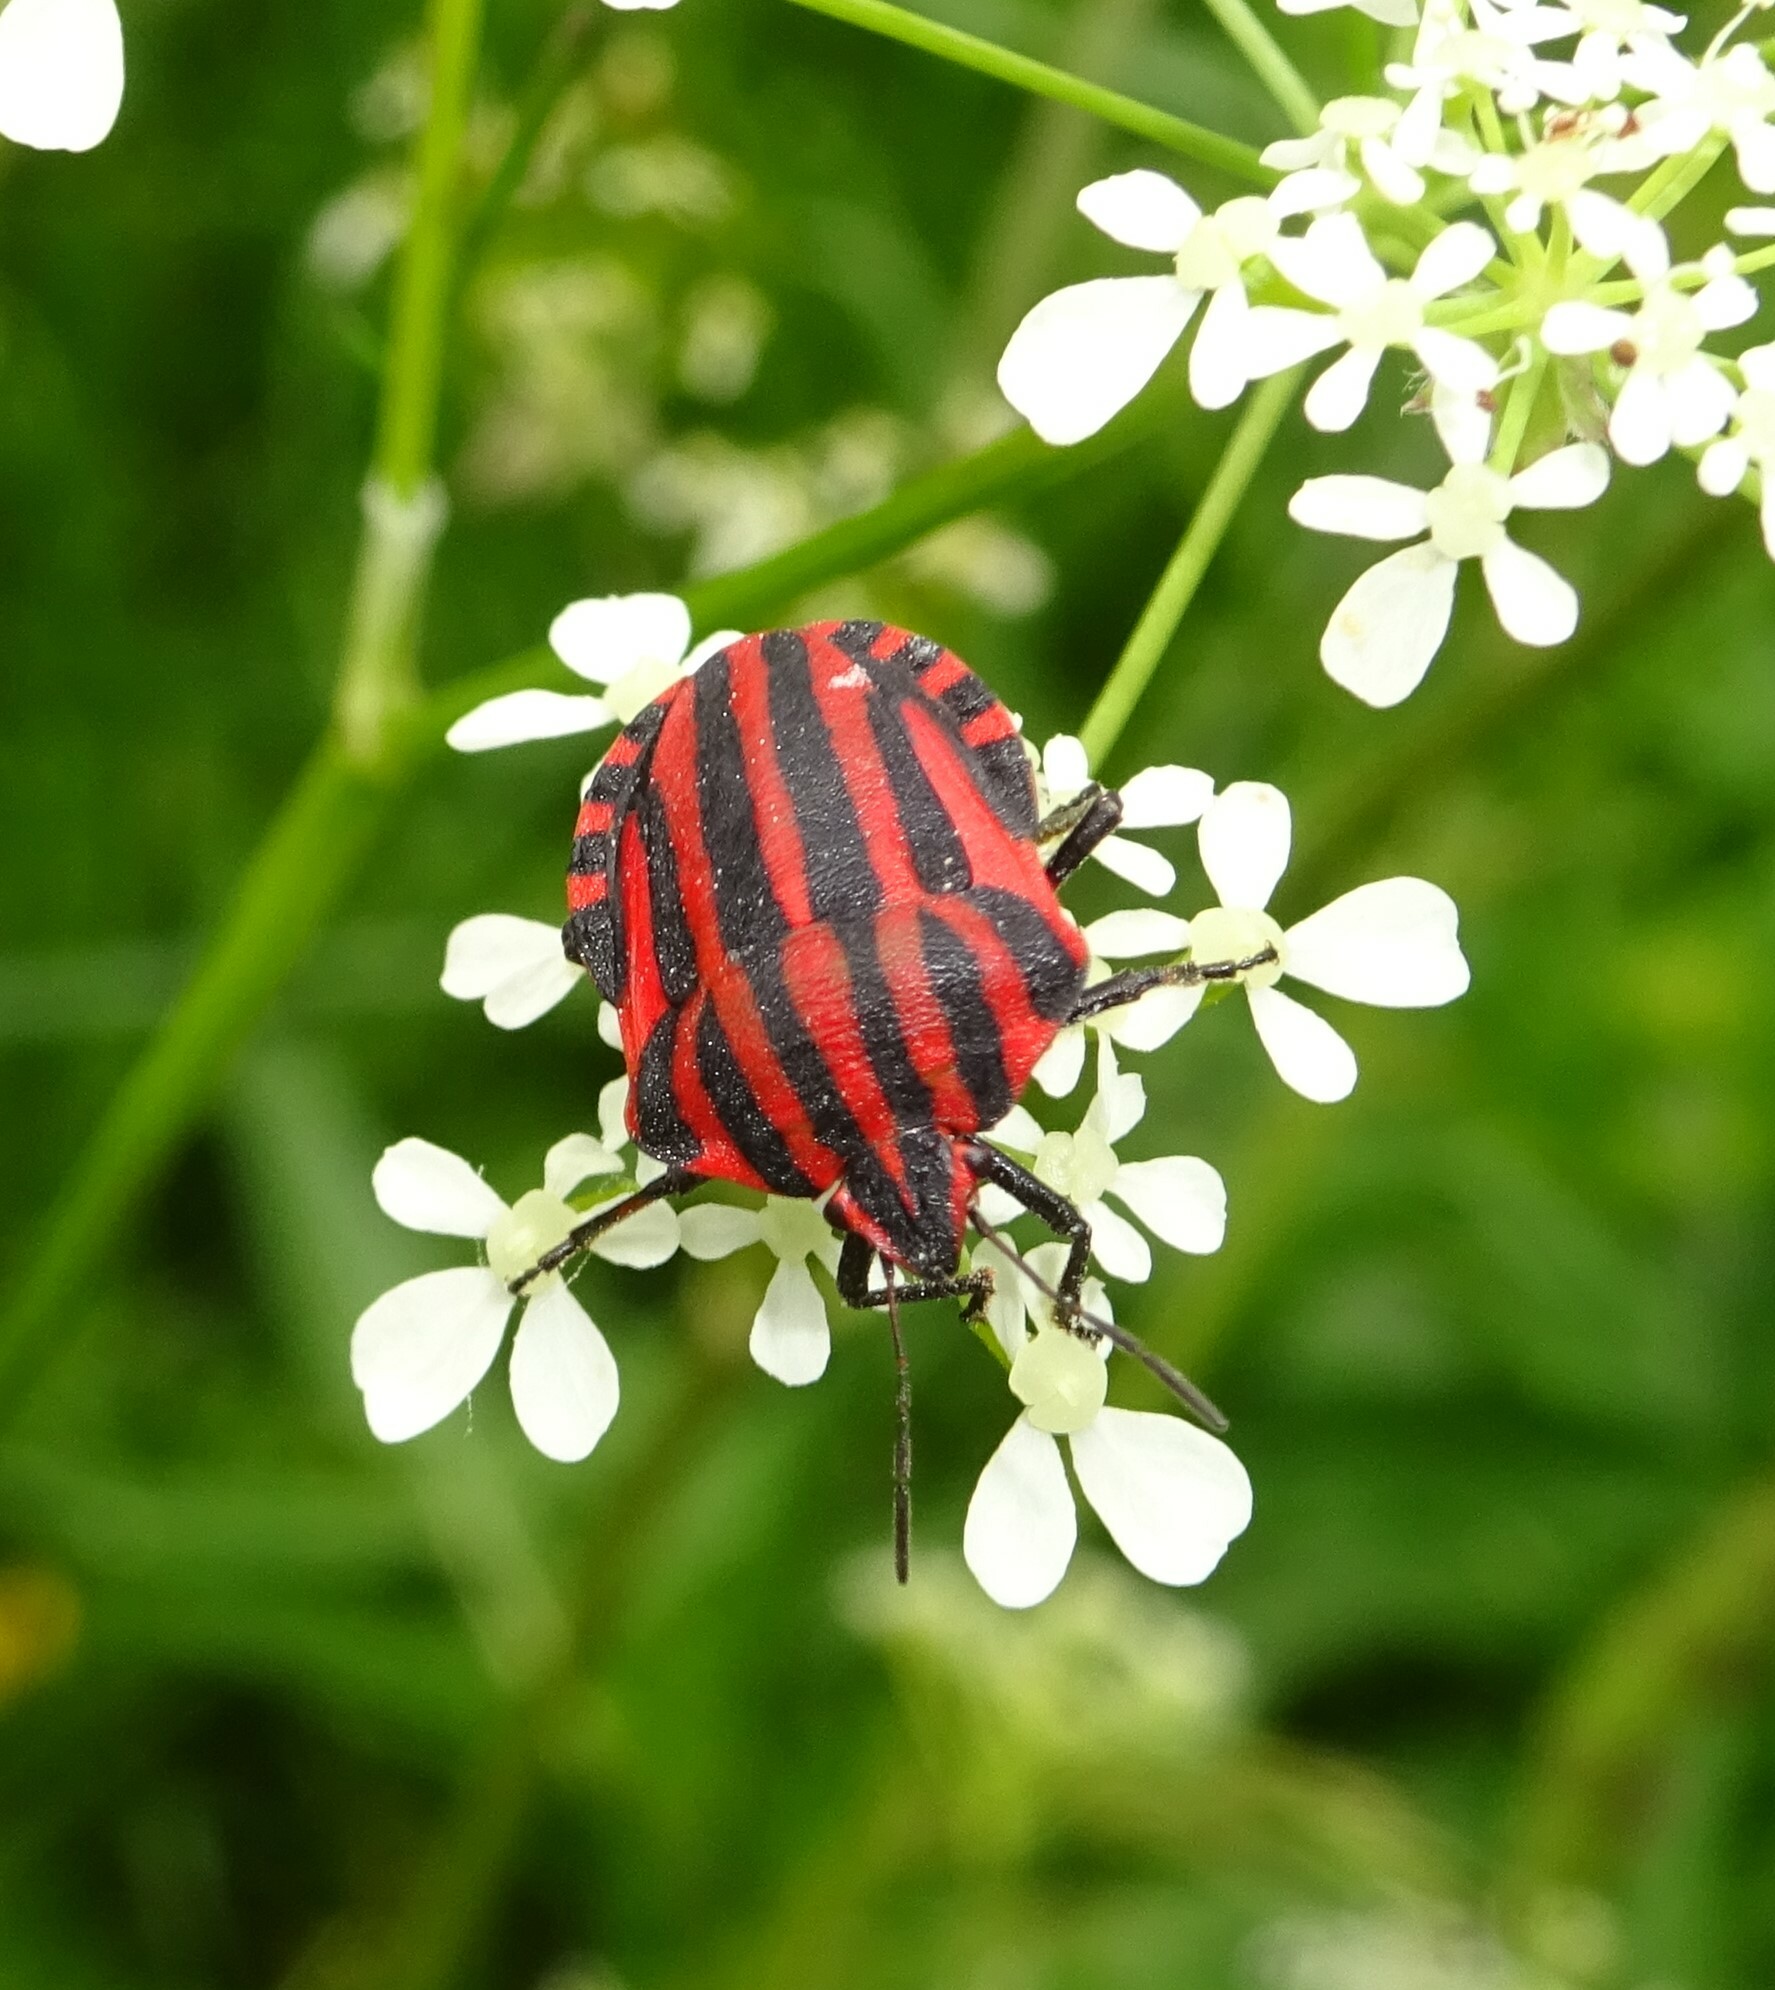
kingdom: Animalia
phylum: Arthropoda
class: Insecta
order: Hemiptera
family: Pentatomidae
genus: Graphosoma
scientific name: Graphosoma italicum
